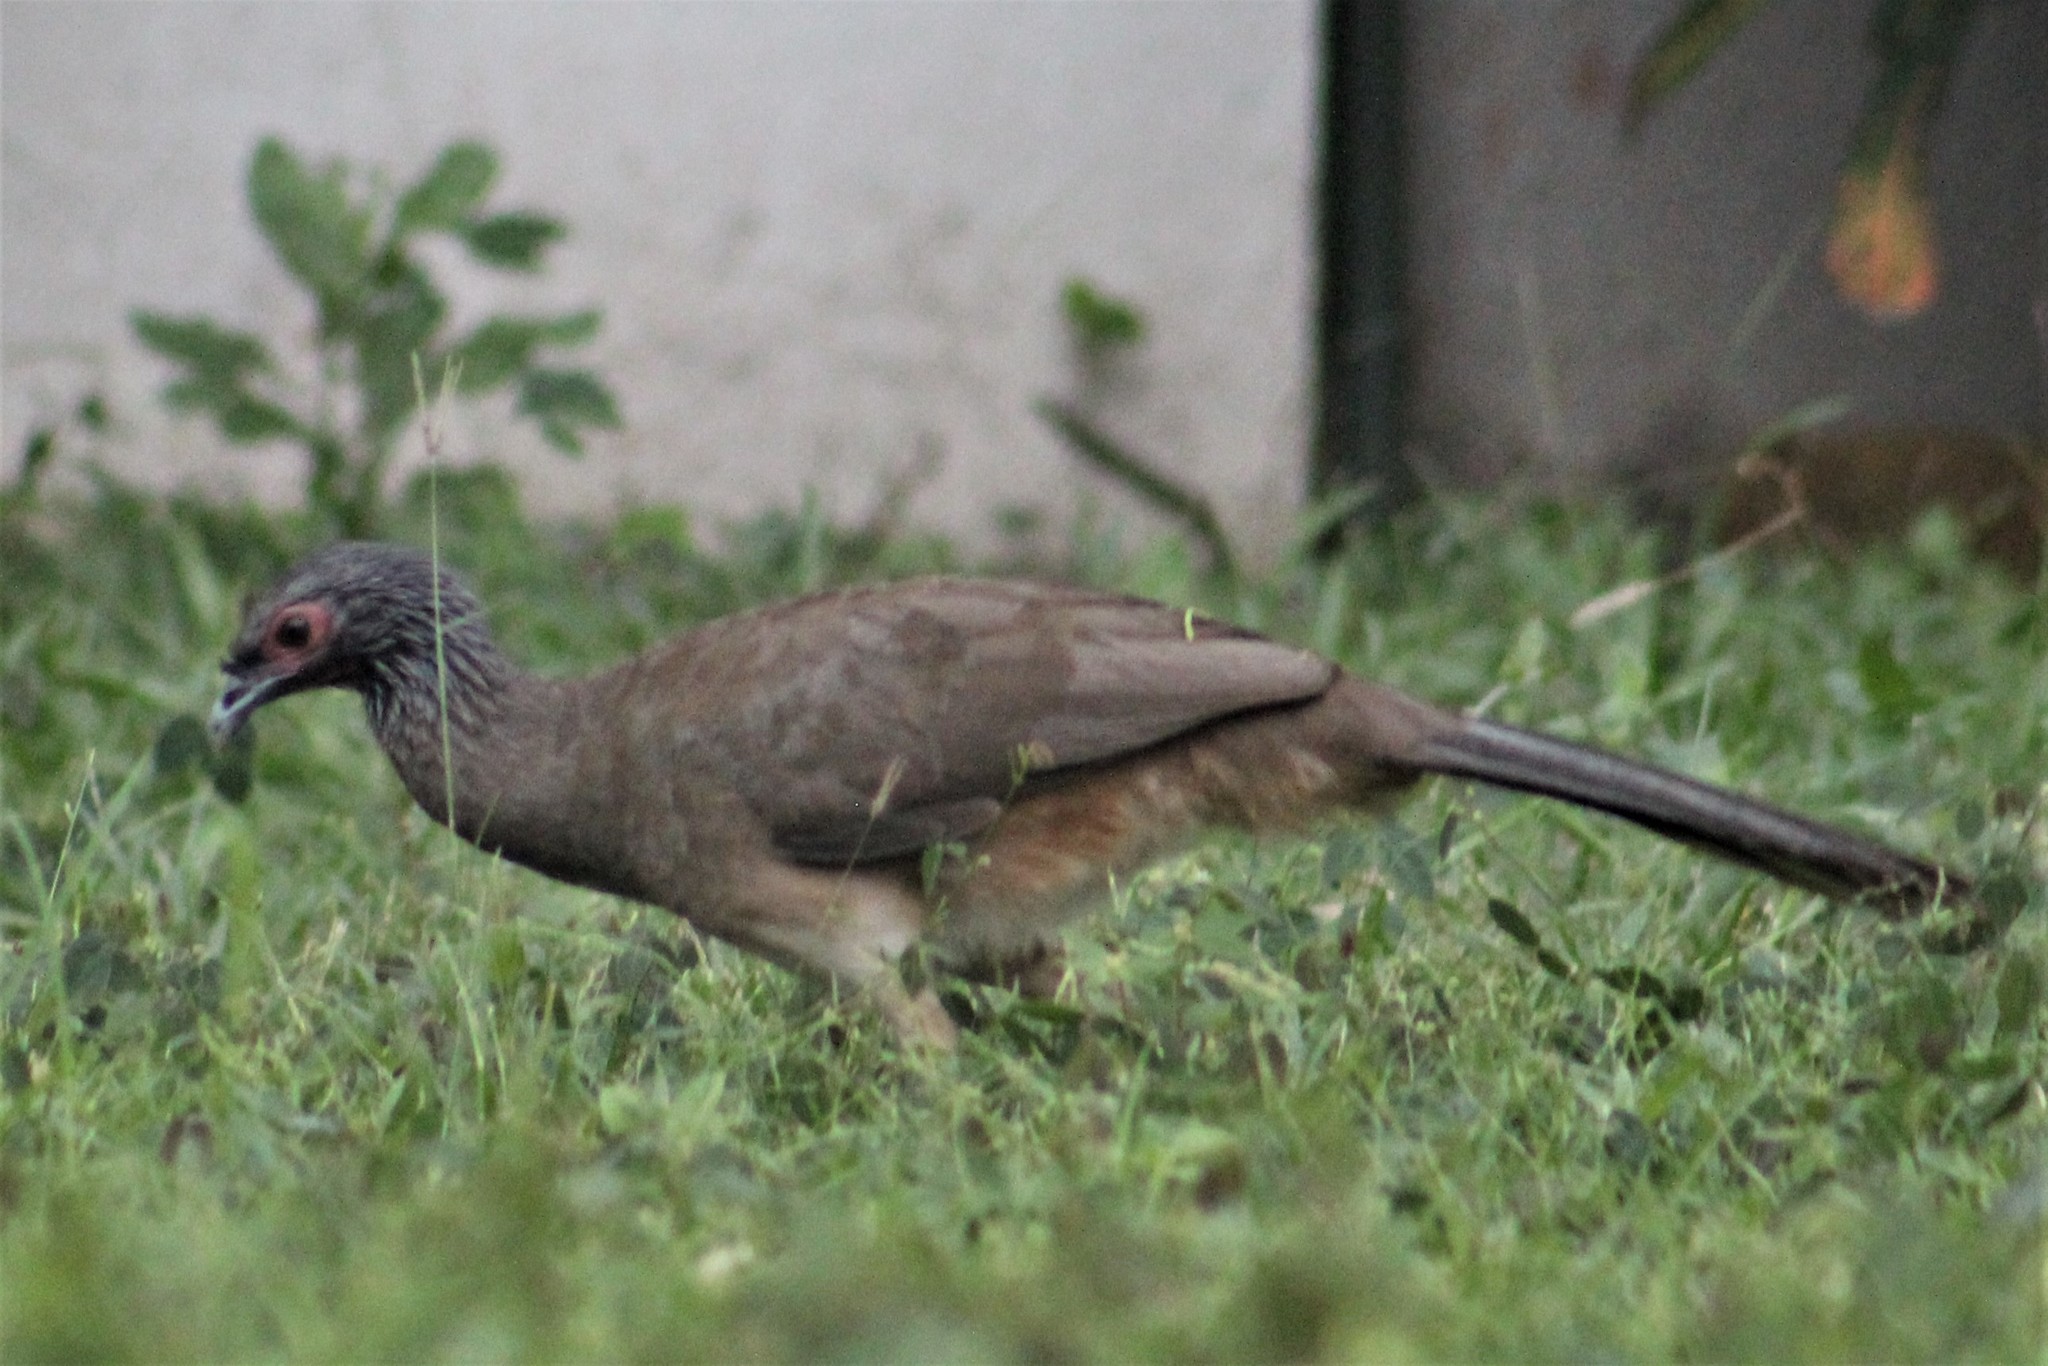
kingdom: Animalia
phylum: Chordata
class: Aves
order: Galliformes
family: Cracidae
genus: Ortalis
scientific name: Ortalis poliocephala
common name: West mexican chachalaca
